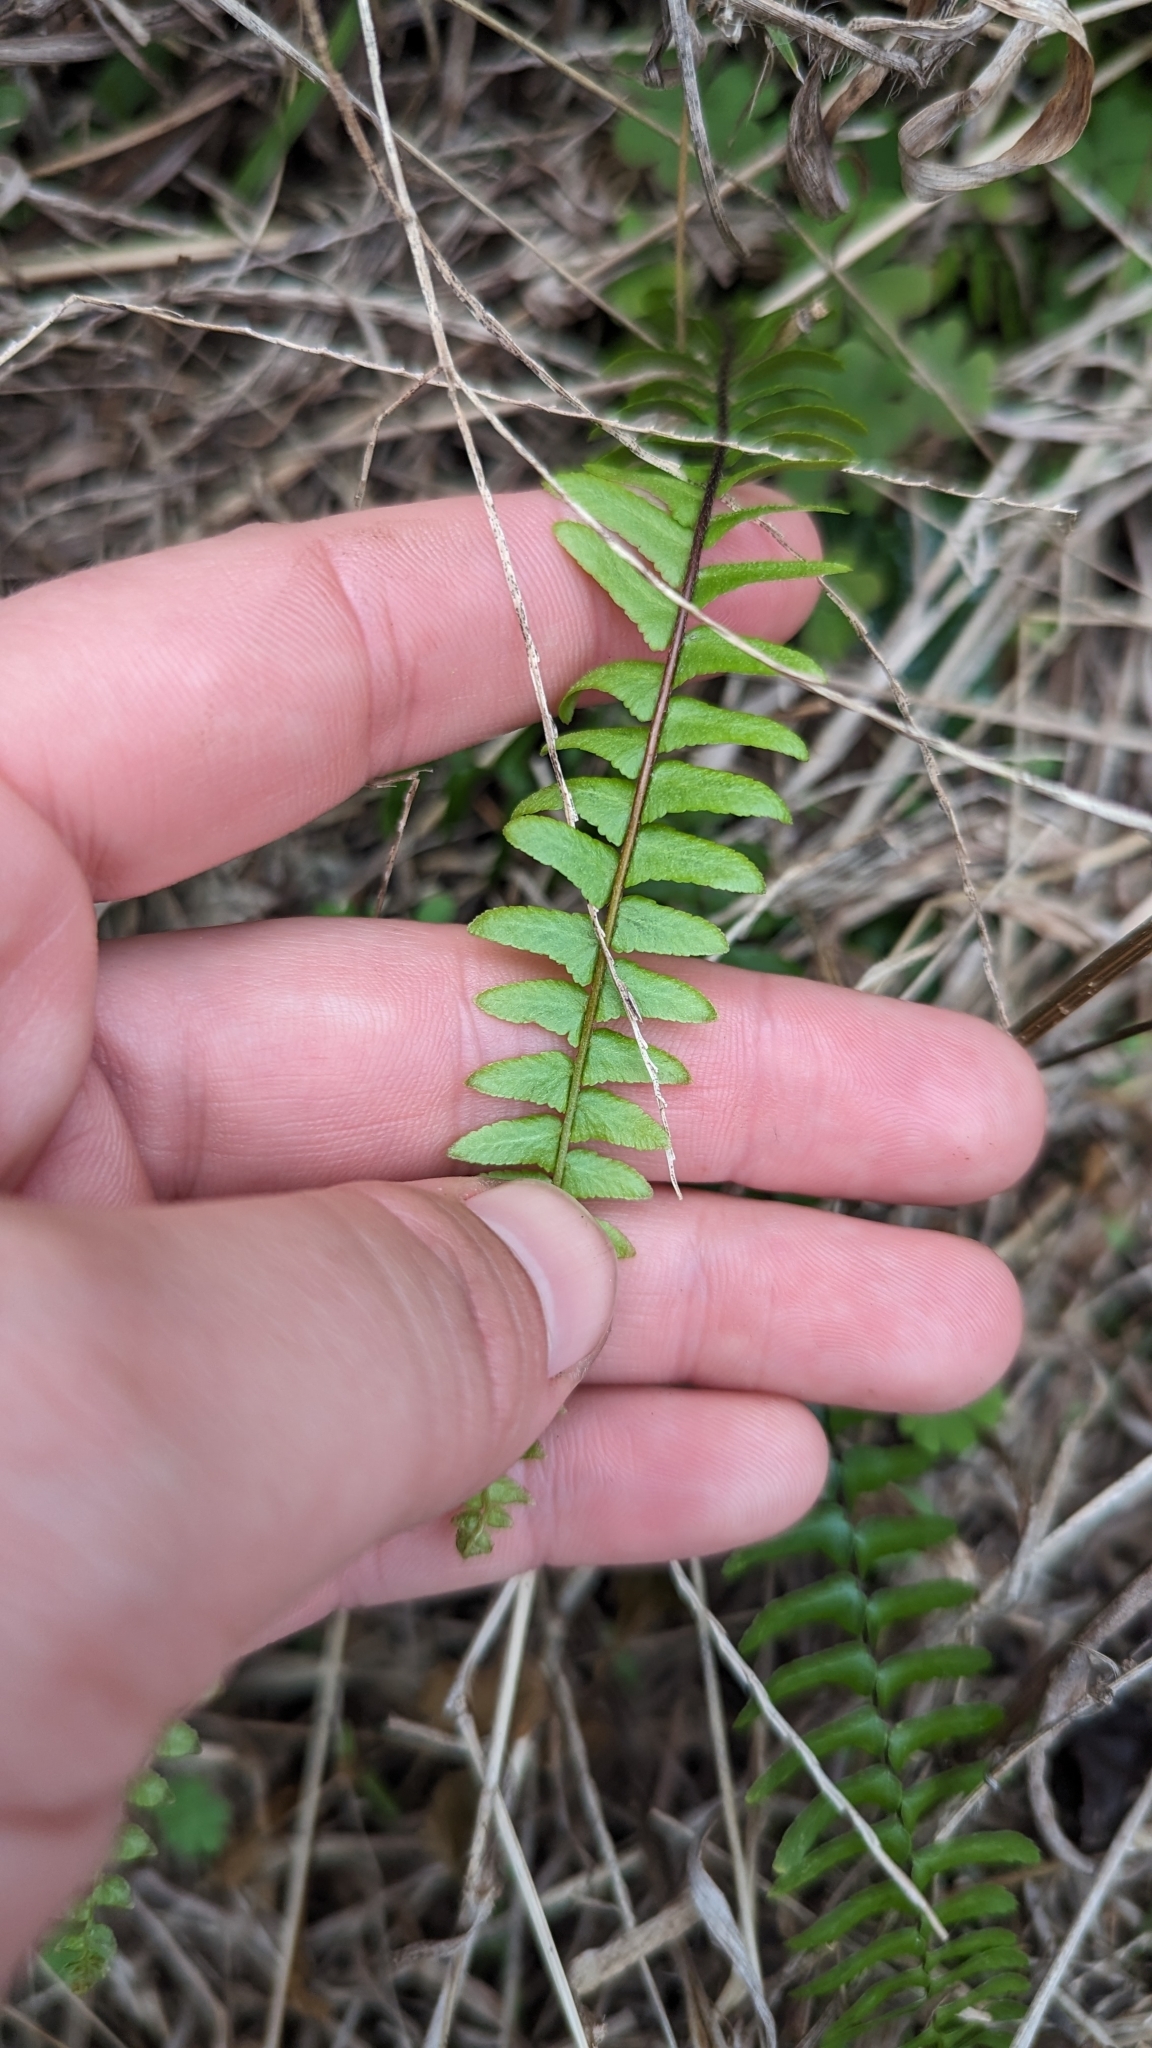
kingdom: Plantae
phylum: Tracheophyta
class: Polypodiopsida
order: Polypodiales
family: Aspleniaceae
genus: Asplenium
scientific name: Asplenium platyneuron
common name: Ebony spleenwort
